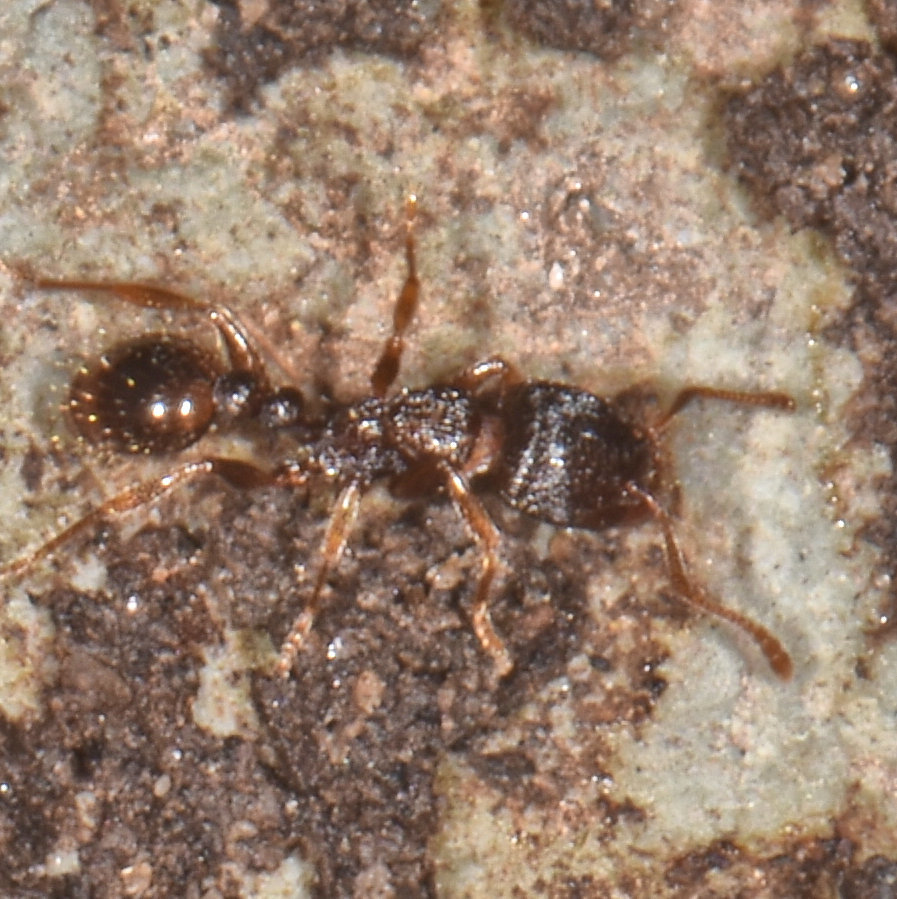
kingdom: Animalia
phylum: Arthropoda
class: Insecta
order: Hymenoptera
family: Formicidae
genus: Tetramorium
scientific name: Tetramorium immigrans
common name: Pavement ant
